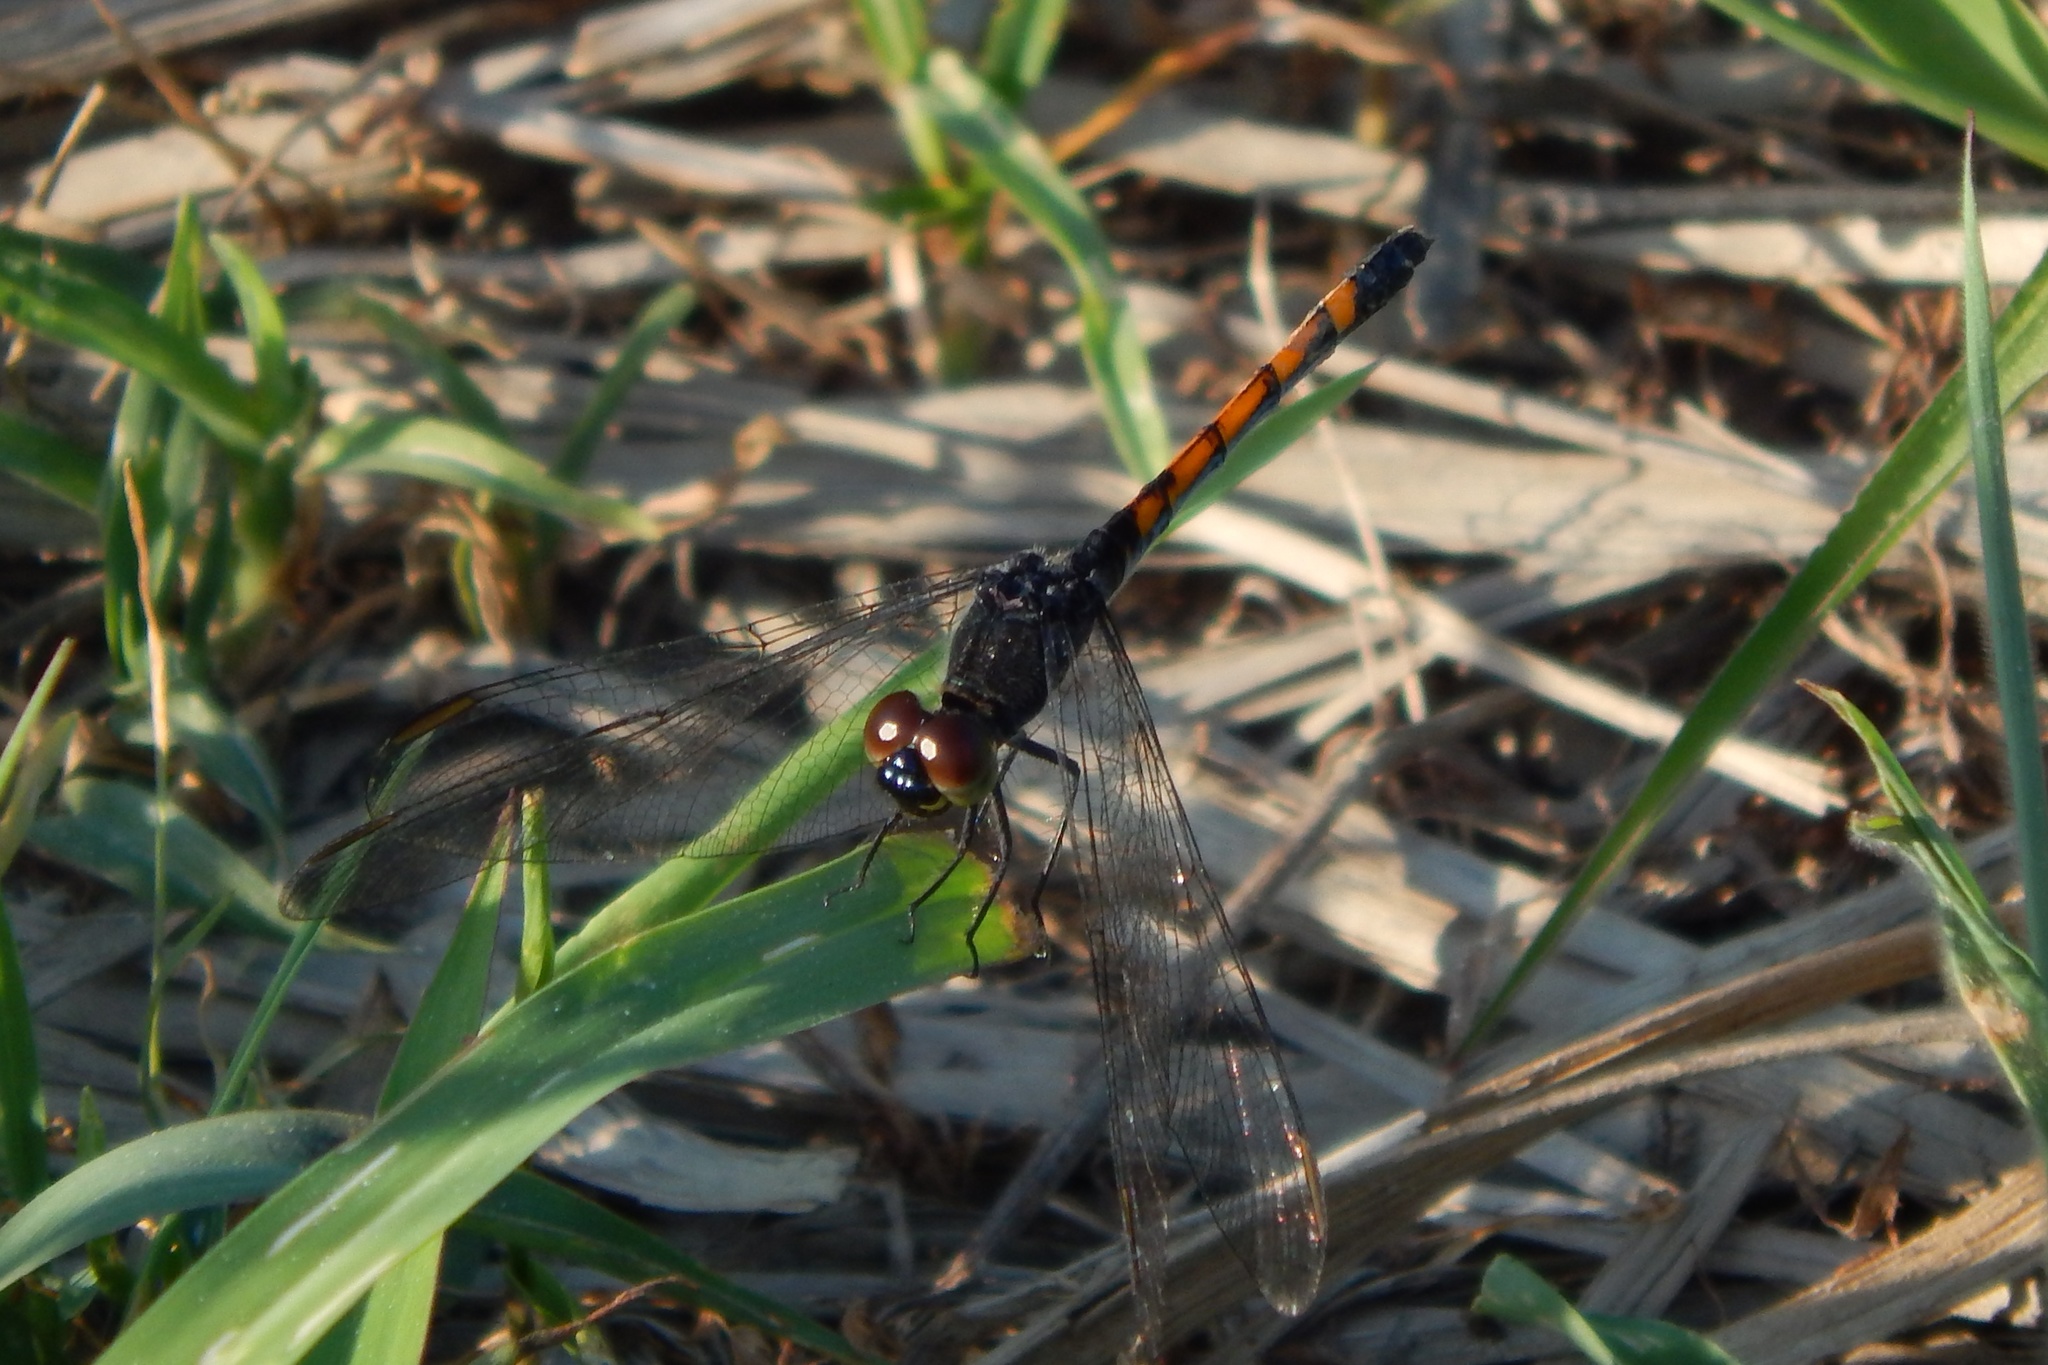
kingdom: Animalia
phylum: Arthropoda
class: Insecta
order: Odonata
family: Libellulidae
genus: Erythrodiplax
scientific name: Erythrodiplax berenice
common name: Seaside dragonlet
